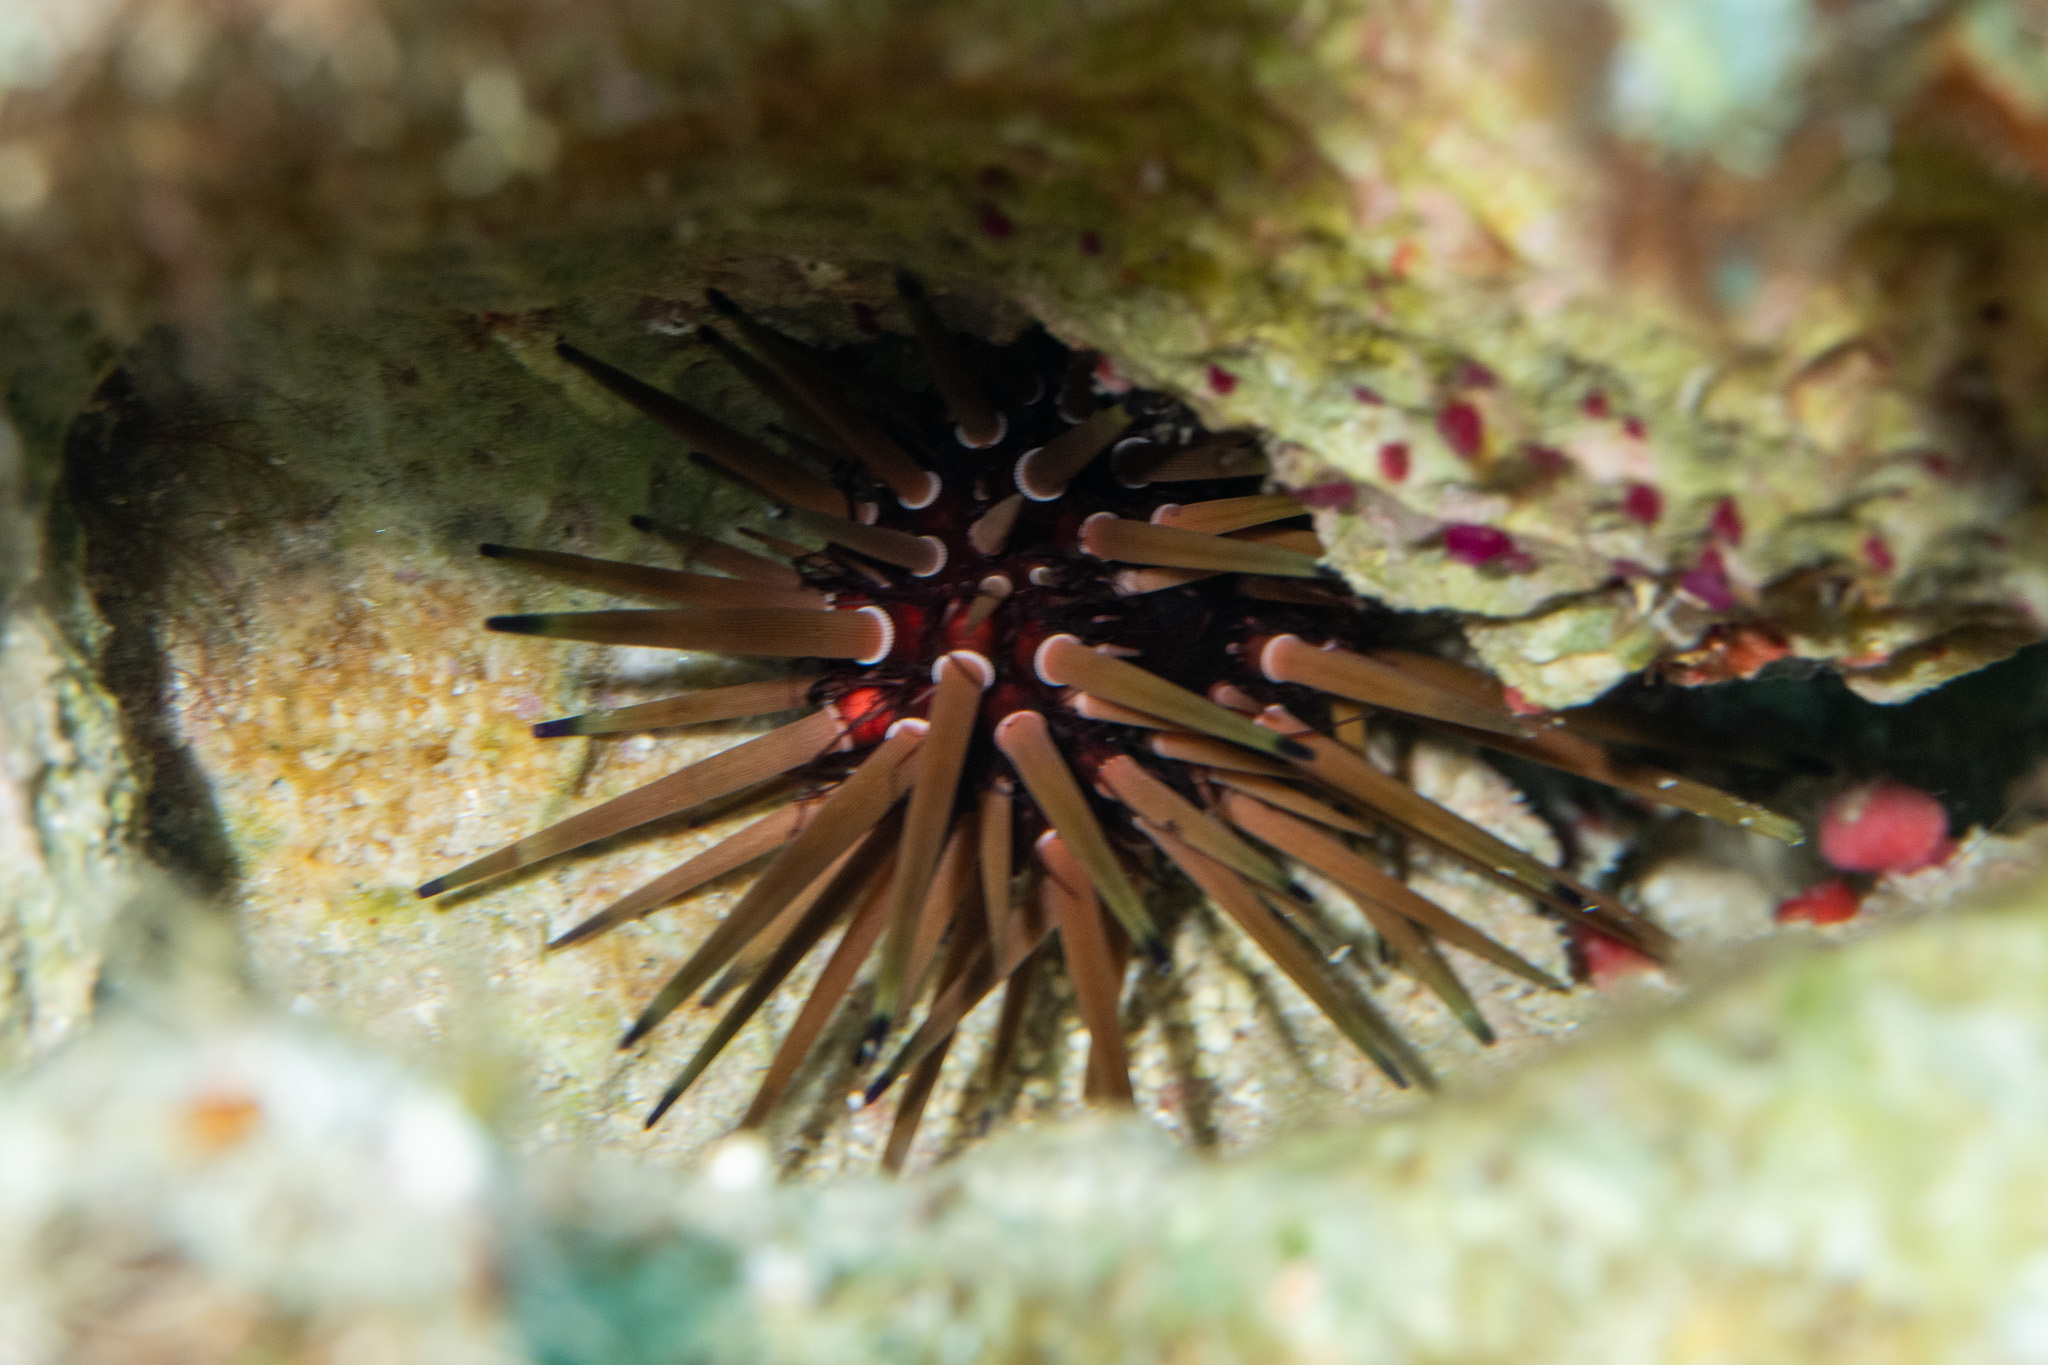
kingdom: Animalia
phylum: Echinodermata
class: Echinoidea
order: Camarodonta
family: Echinometridae
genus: Echinometra
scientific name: Echinometra viridis
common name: Reef urchin
